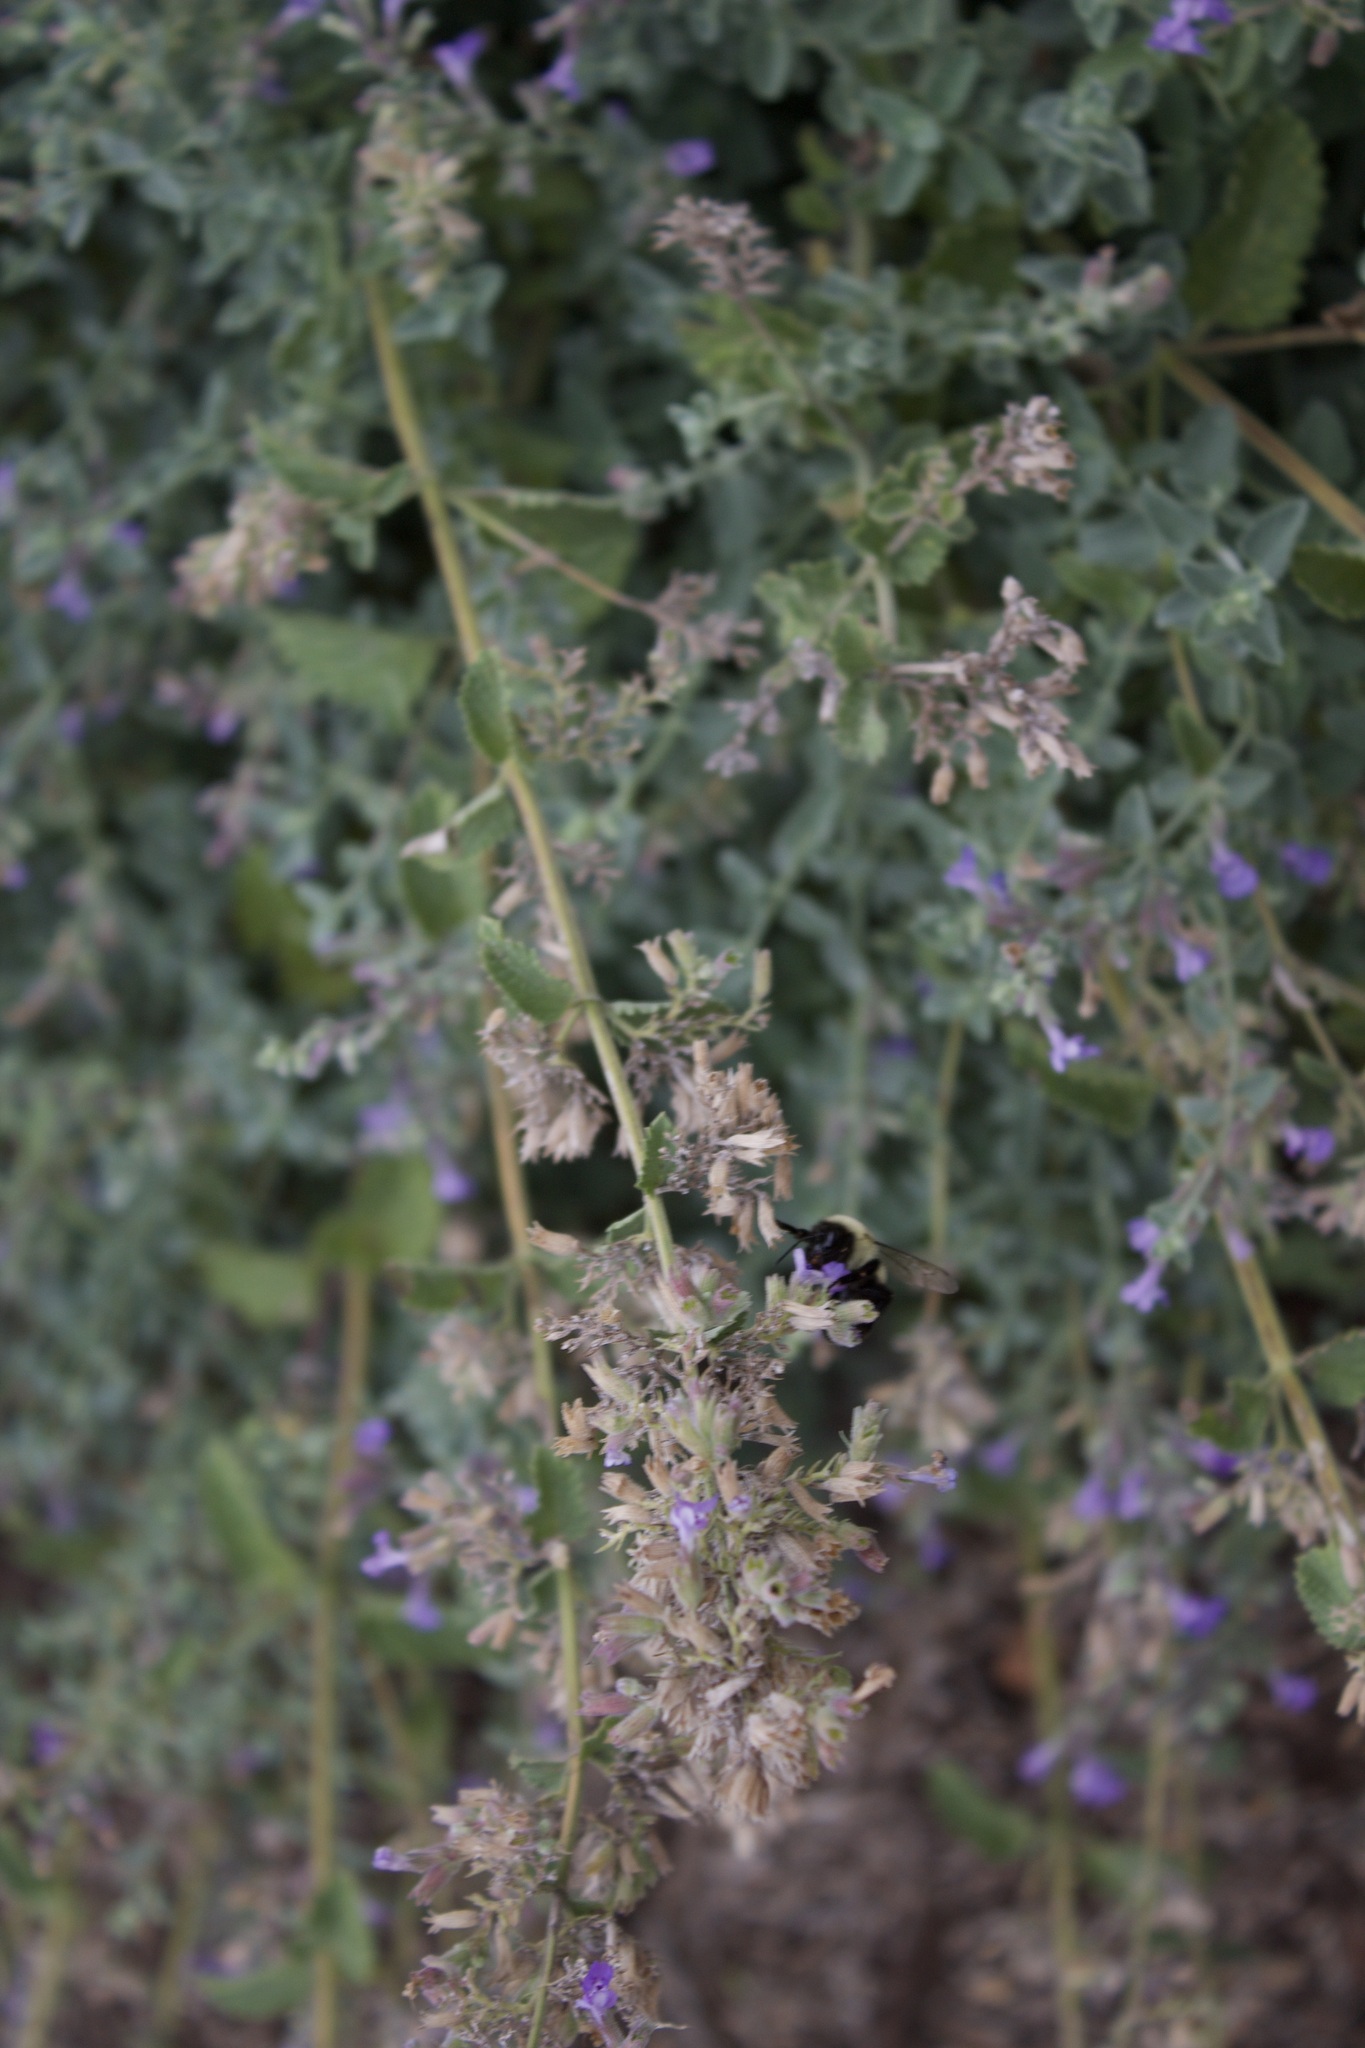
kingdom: Animalia
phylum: Arthropoda
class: Insecta
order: Hymenoptera
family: Apidae
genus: Bombus
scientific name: Bombus impatiens
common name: Common eastern bumble bee
